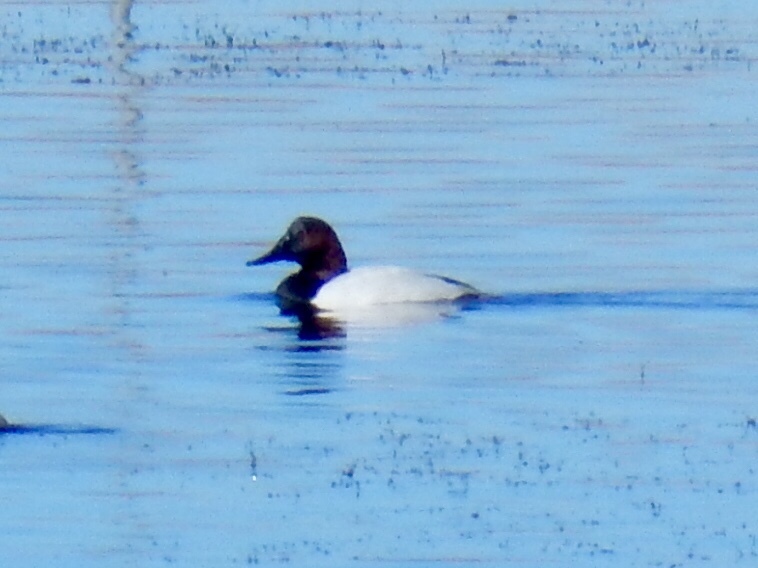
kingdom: Animalia
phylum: Chordata
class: Aves
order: Anseriformes
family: Anatidae
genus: Aythya
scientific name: Aythya valisineria
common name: Canvasback
